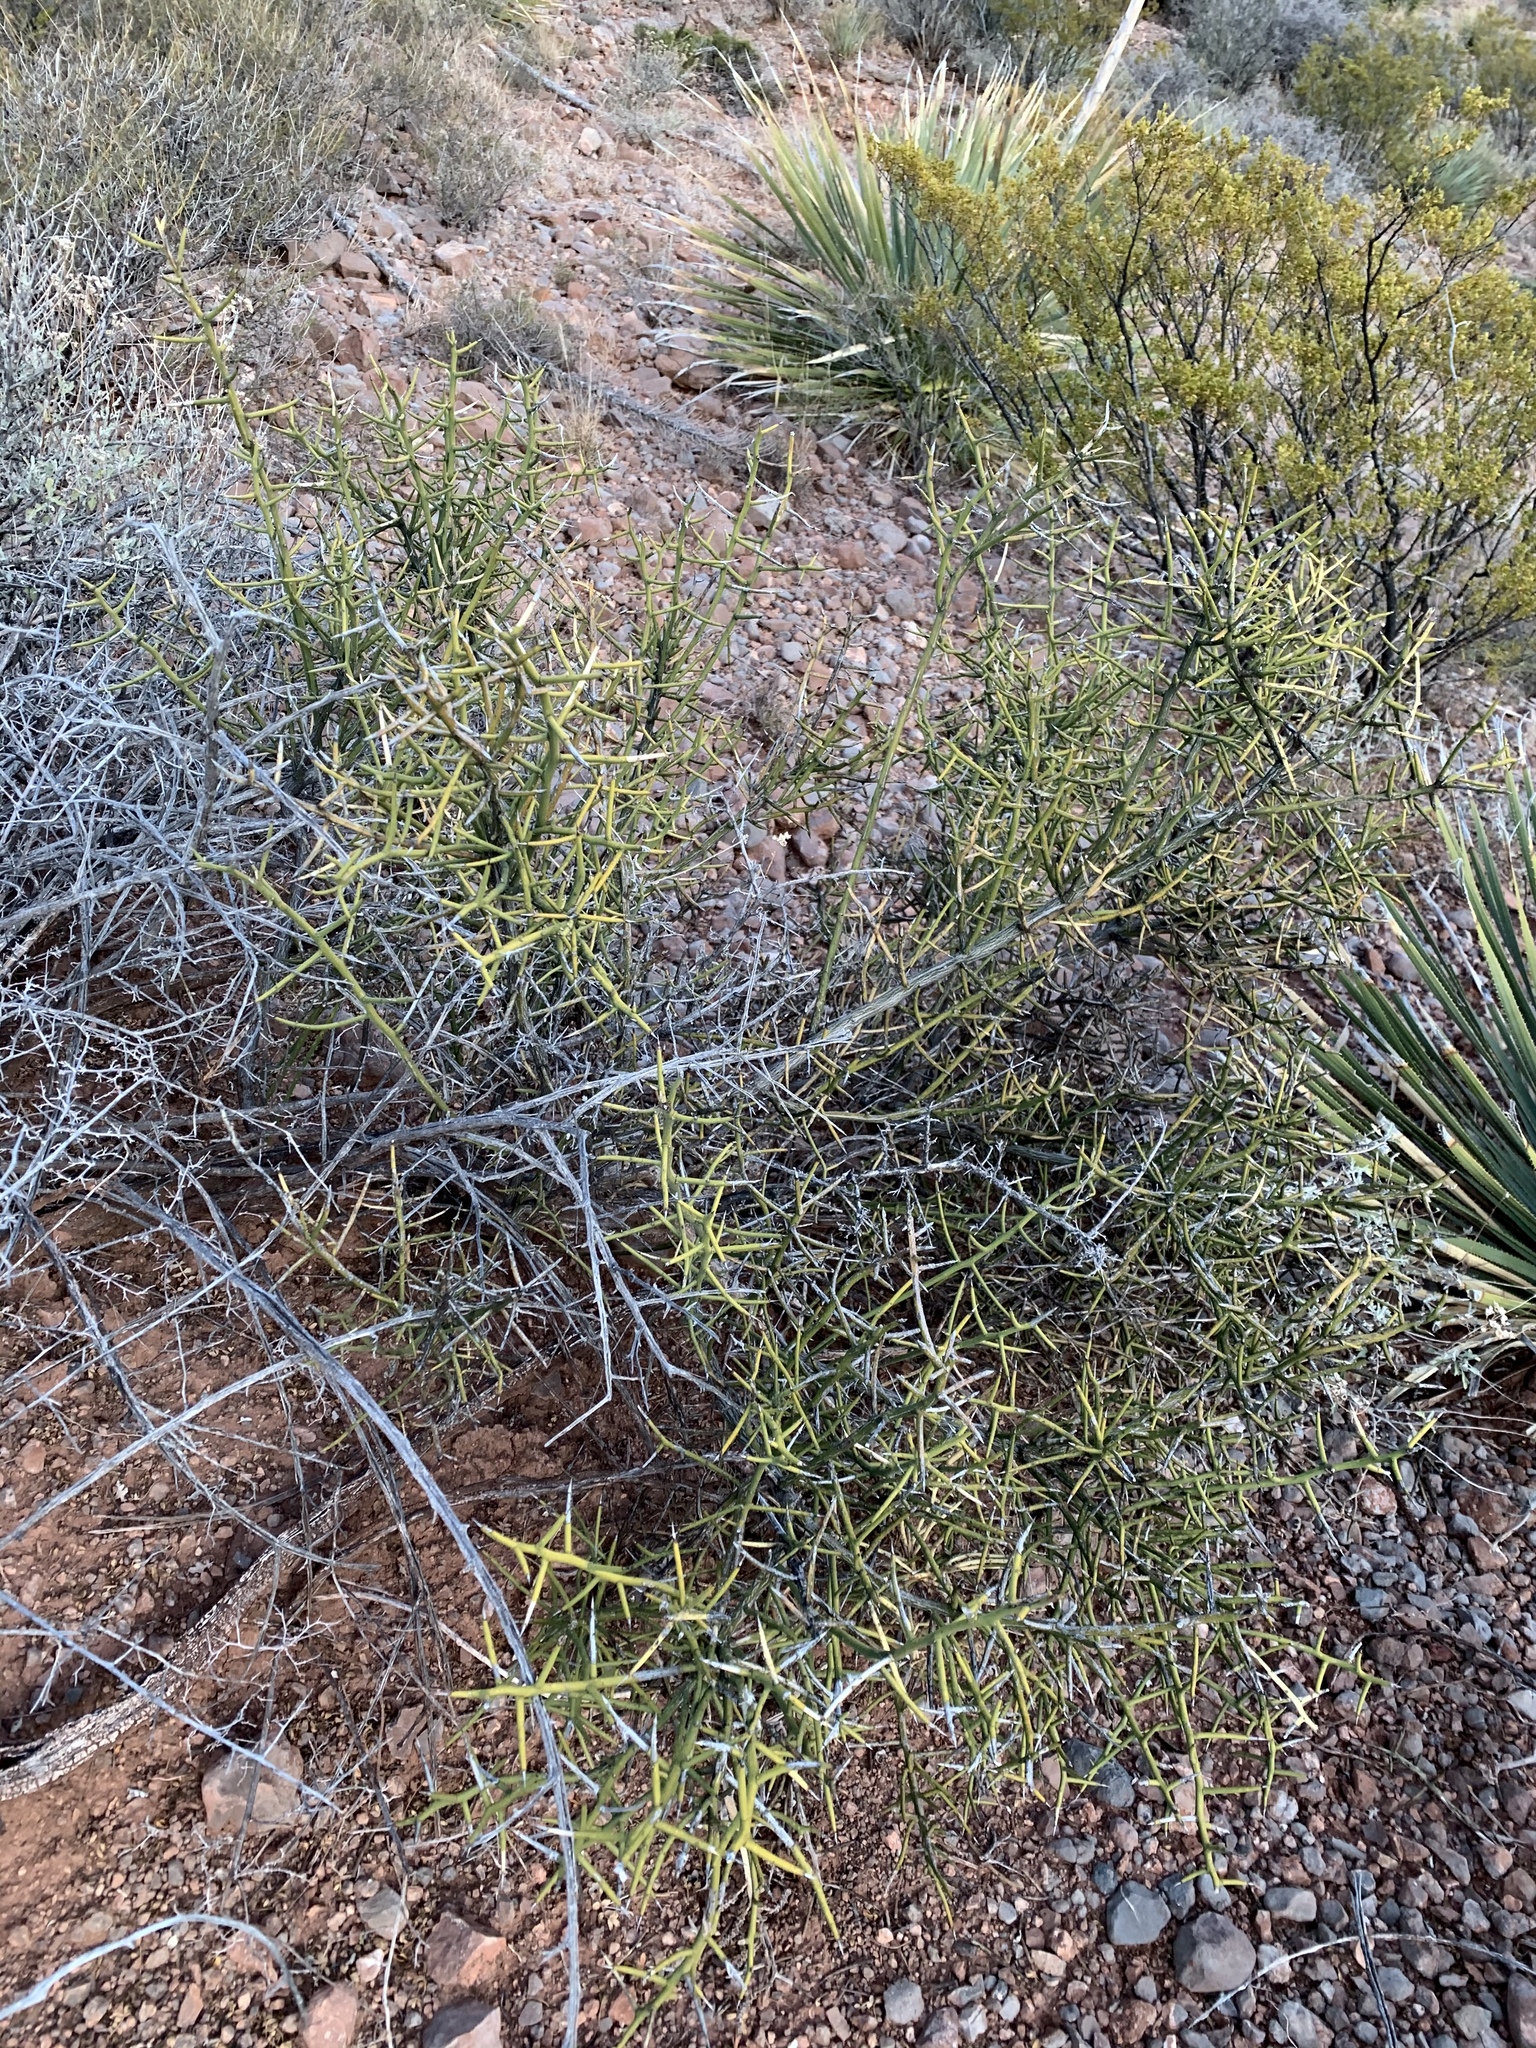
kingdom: Plantae
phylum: Tracheophyta
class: Magnoliopsida
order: Brassicales
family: Koeberliniaceae
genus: Koeberlinia
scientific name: Koeberlinia spinosa
